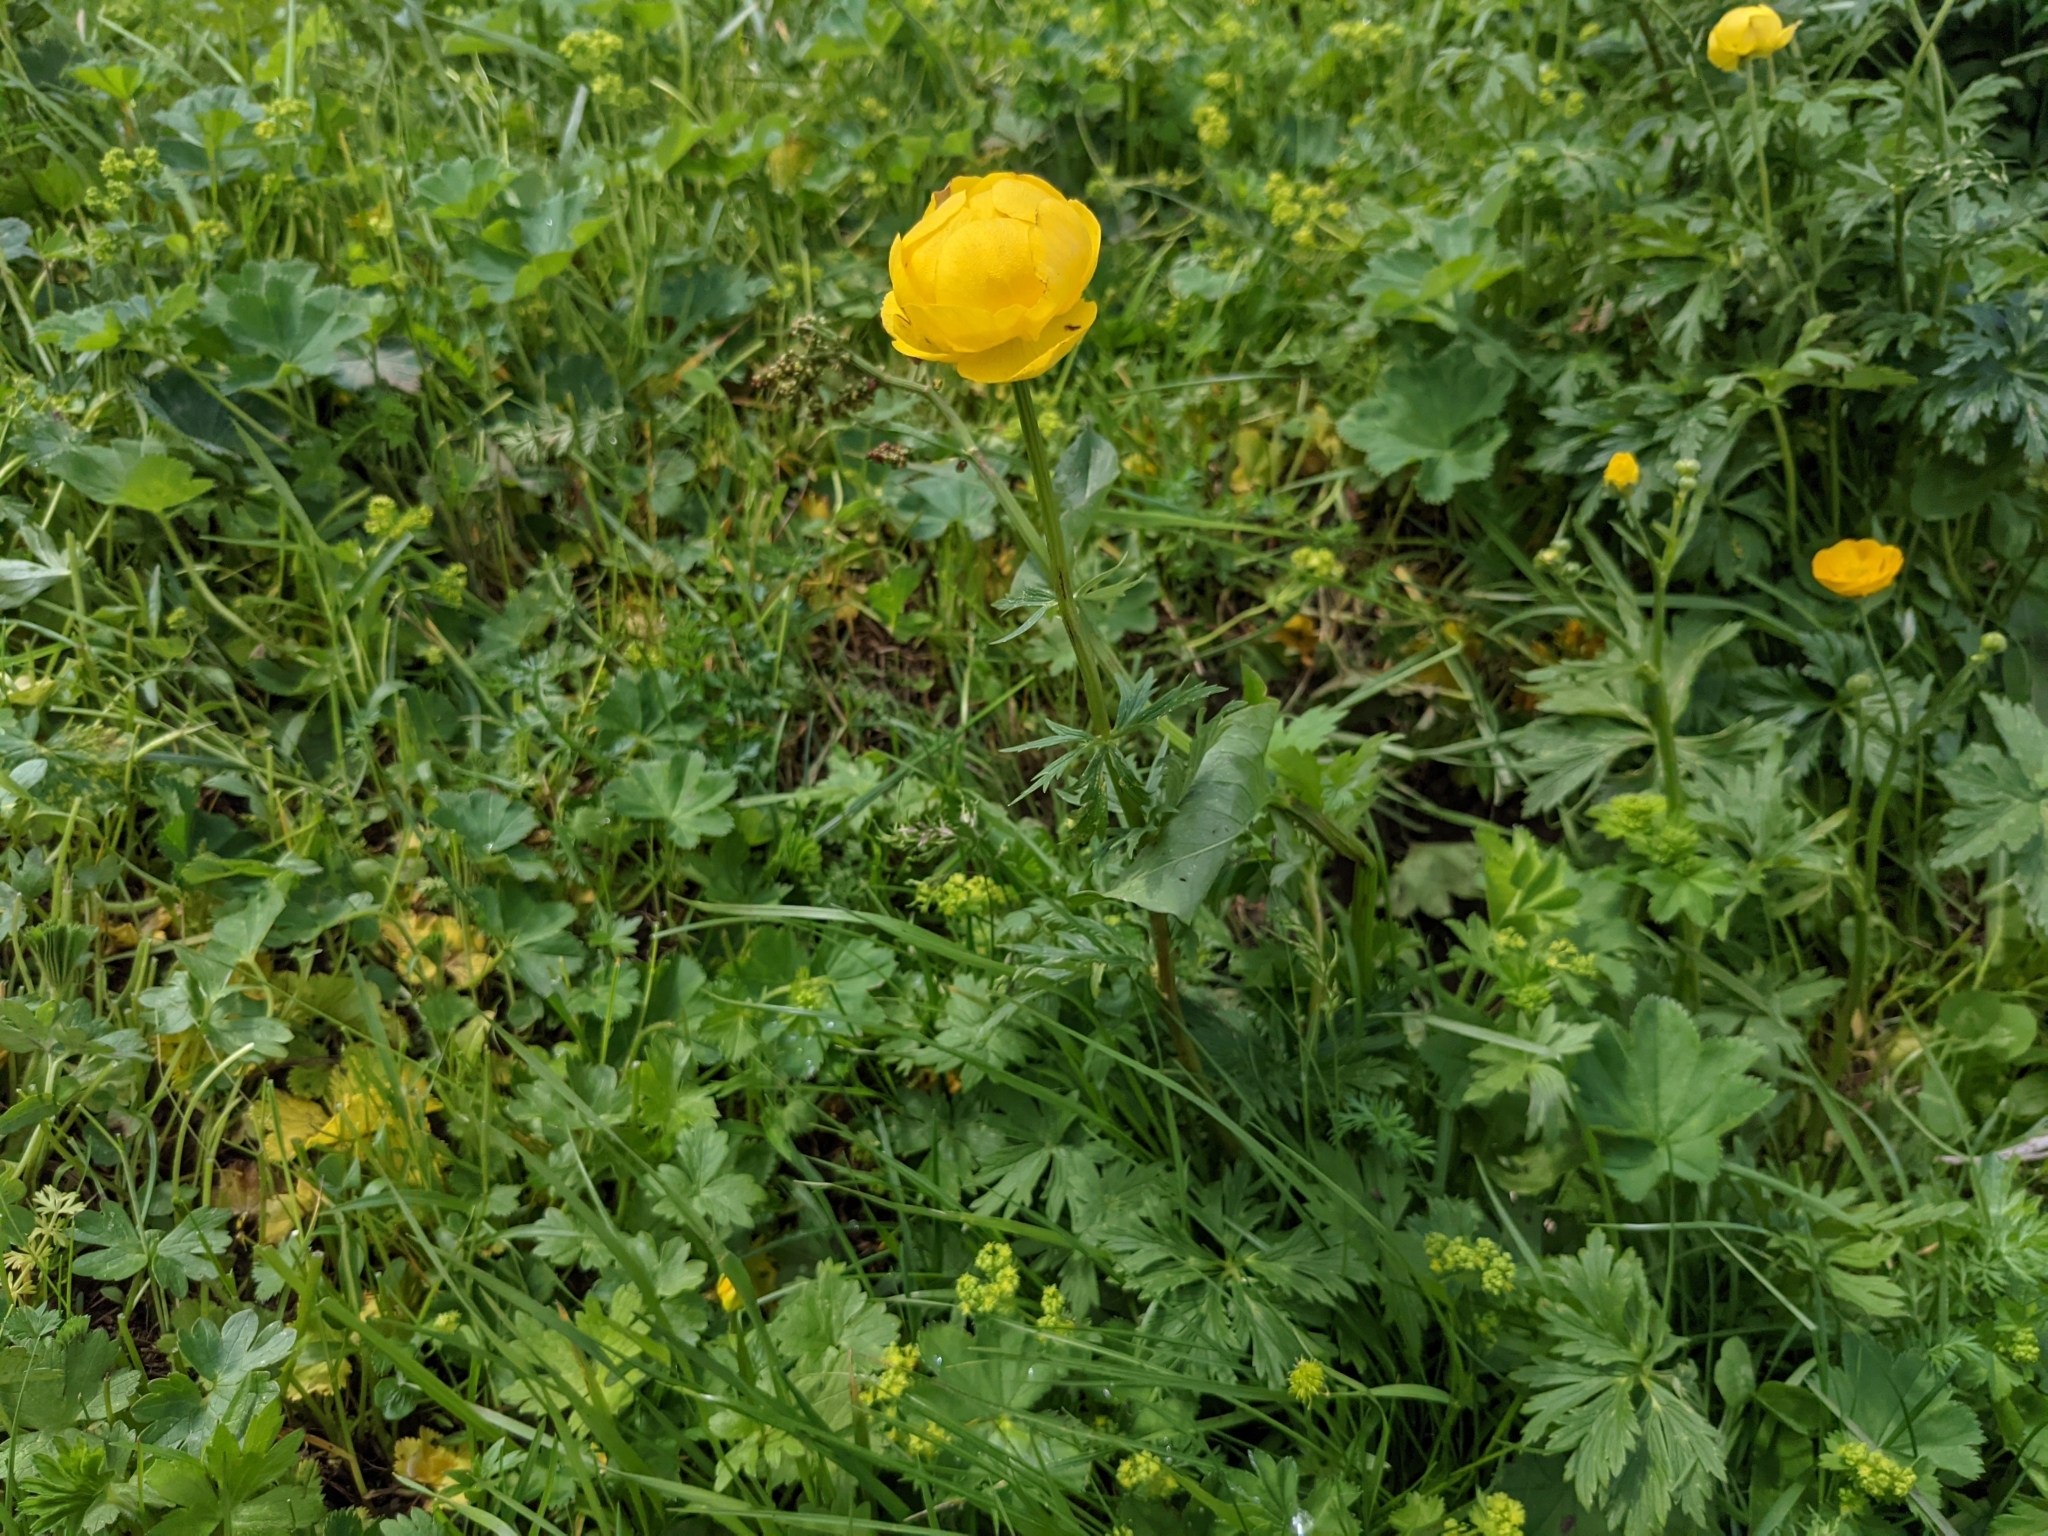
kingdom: Plantae
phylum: Tracheophyta
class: Magnoliopsida
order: Ranunculales
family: Ranunculaceae
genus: Trollius
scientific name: Trollius europaeus
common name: European globeflower
